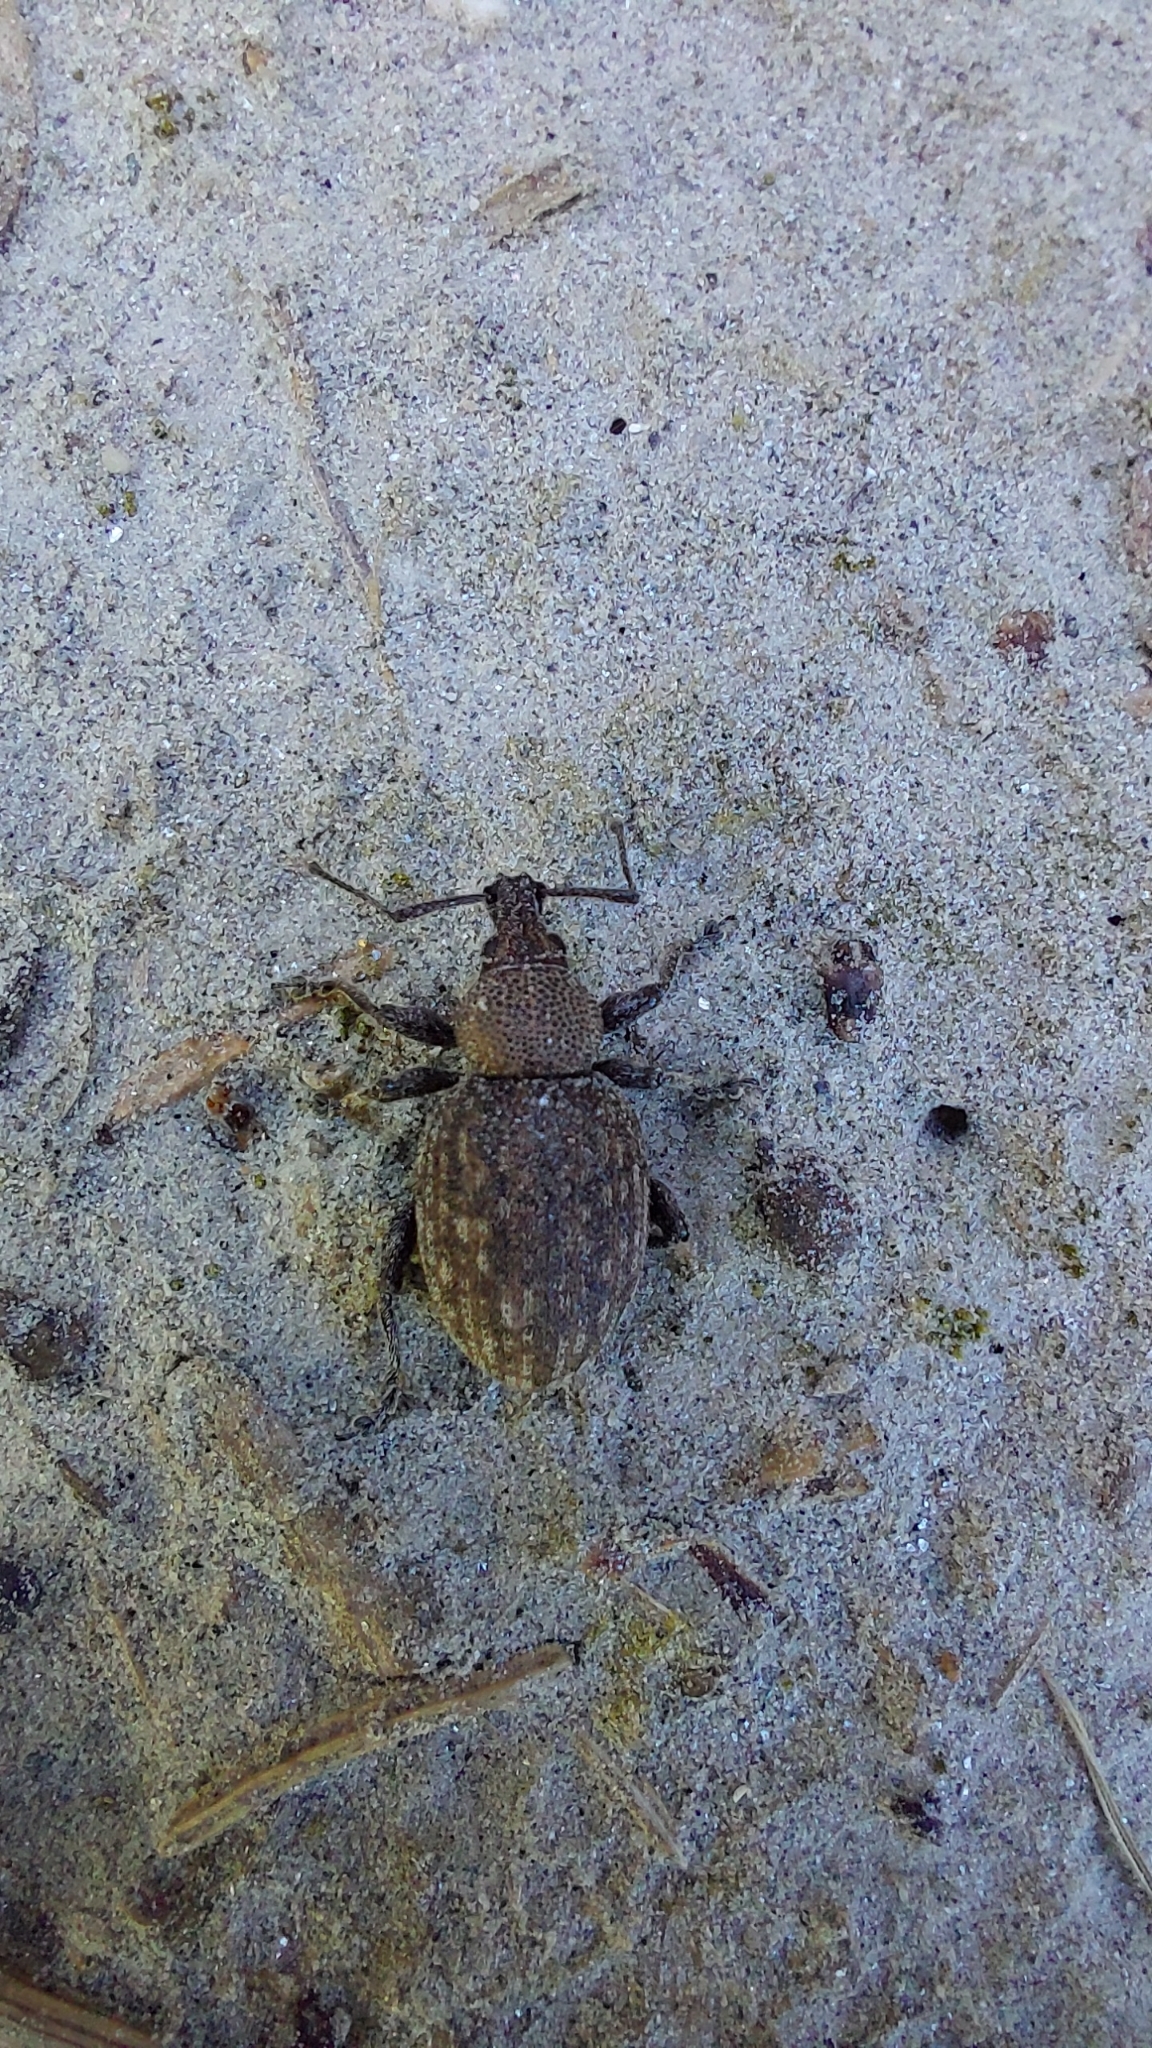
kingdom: Animalia
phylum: Arthropoda
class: Insecta
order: Coleoptera
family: Curculionidae
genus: Otiorhynchus
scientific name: Otiorhynchus ligustici
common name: Weevil
